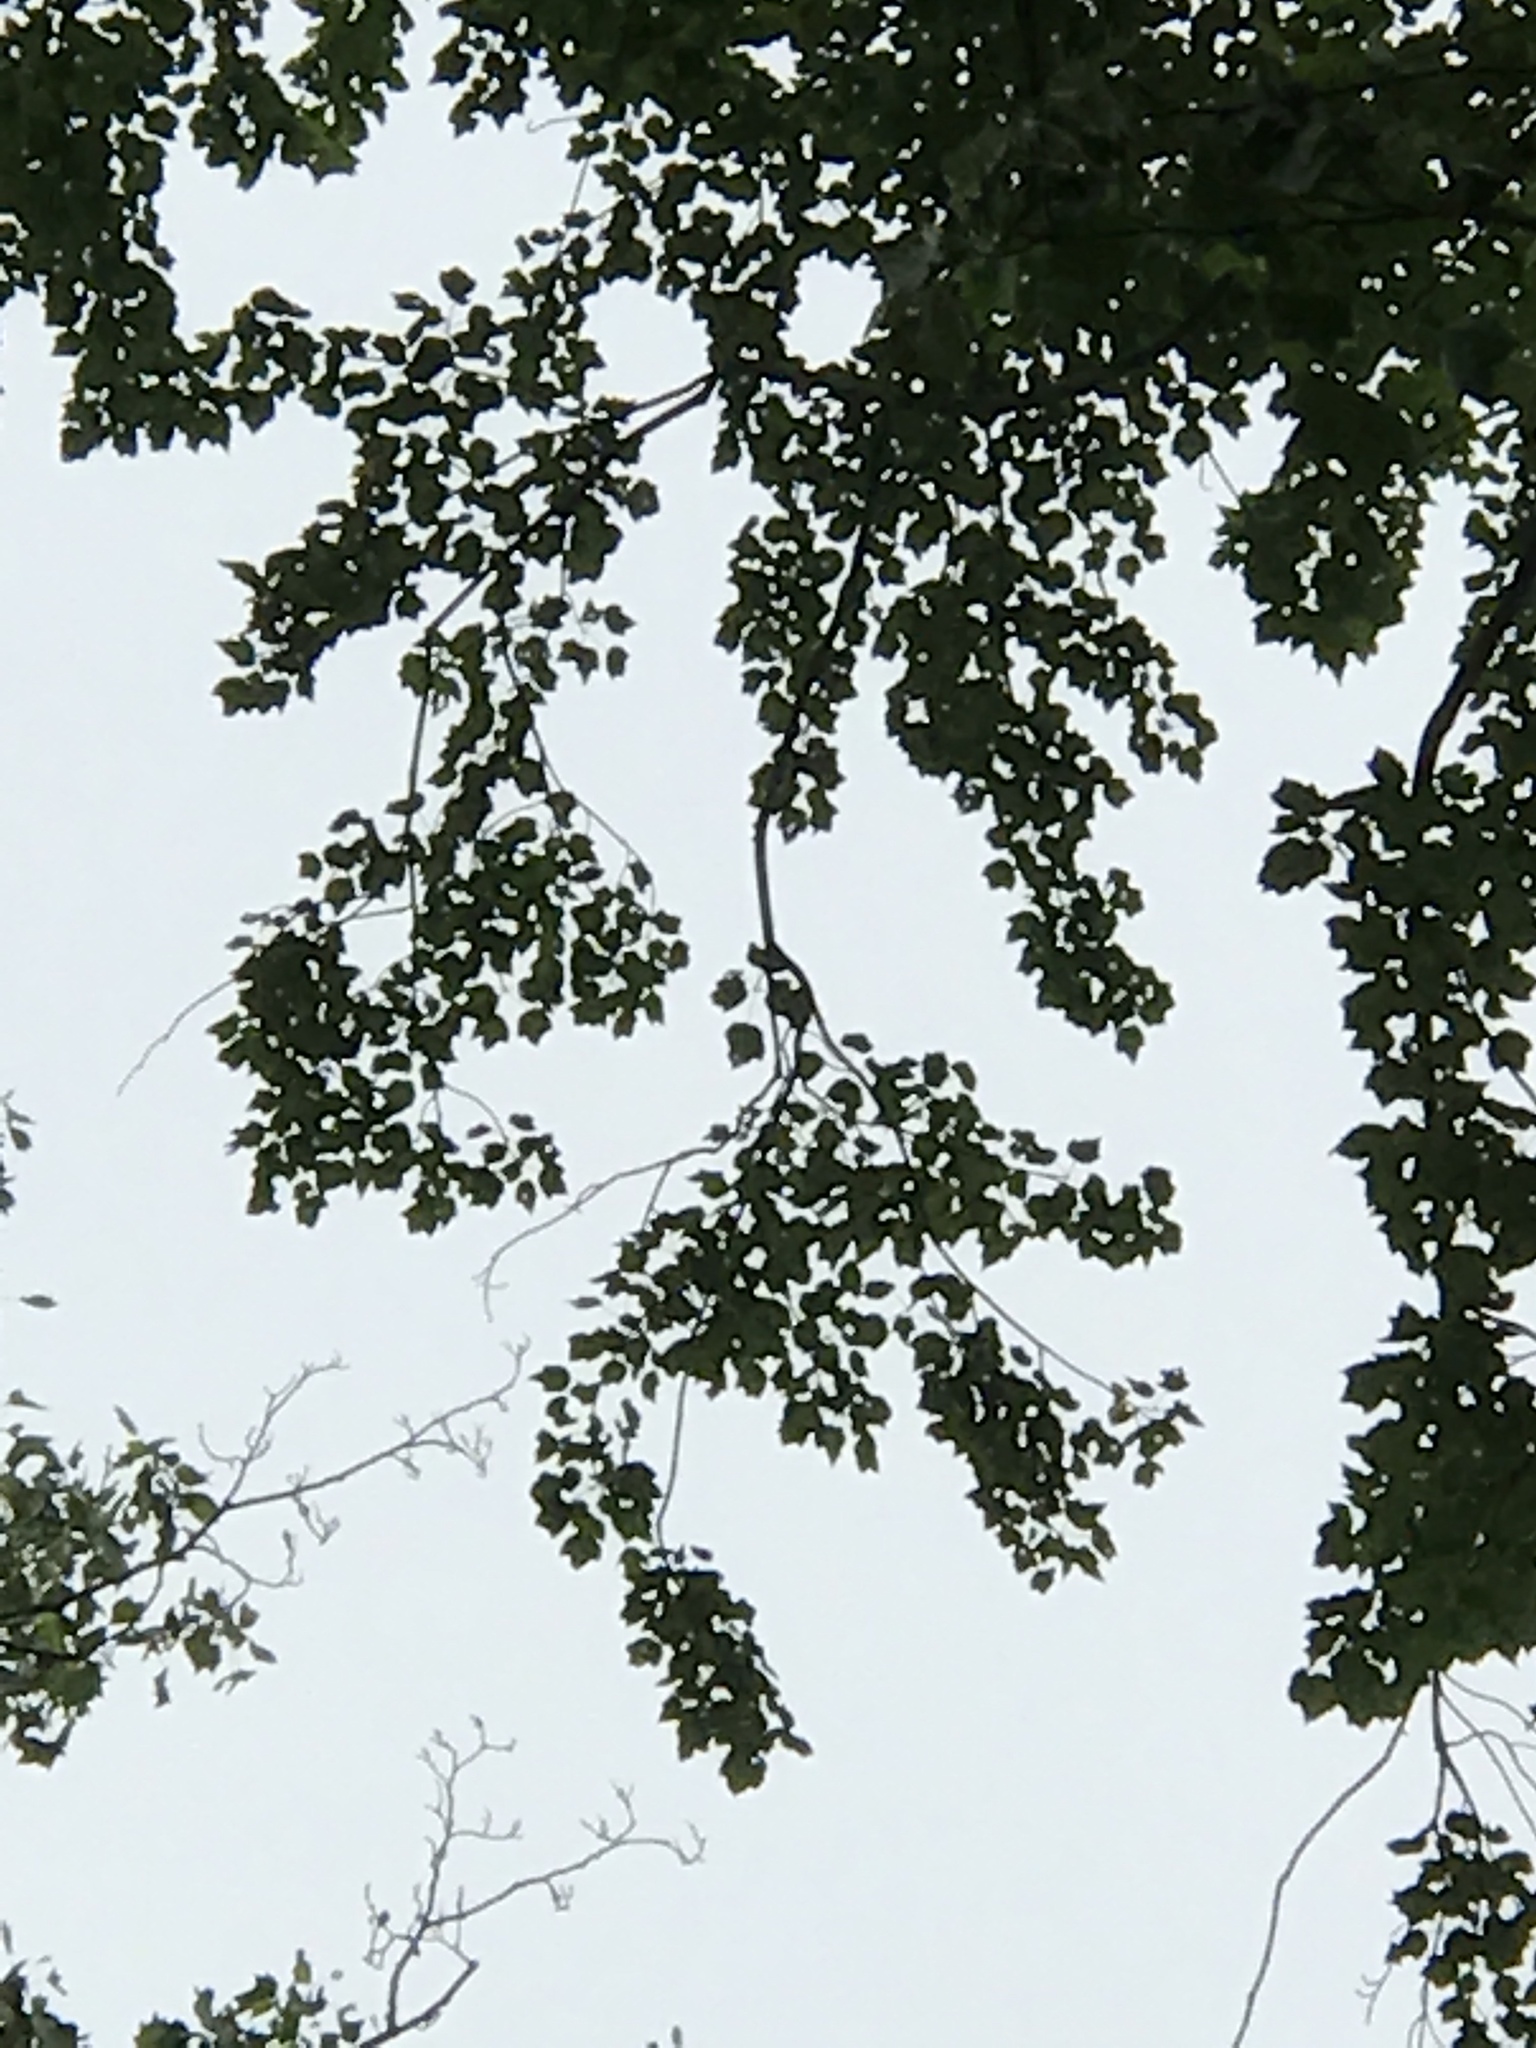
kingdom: Plantae
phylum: Tracheophyta
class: Magnoliopsida
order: Sapindales
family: Sapindaceae
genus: Acer
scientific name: Acer rubrum
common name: Red maple
